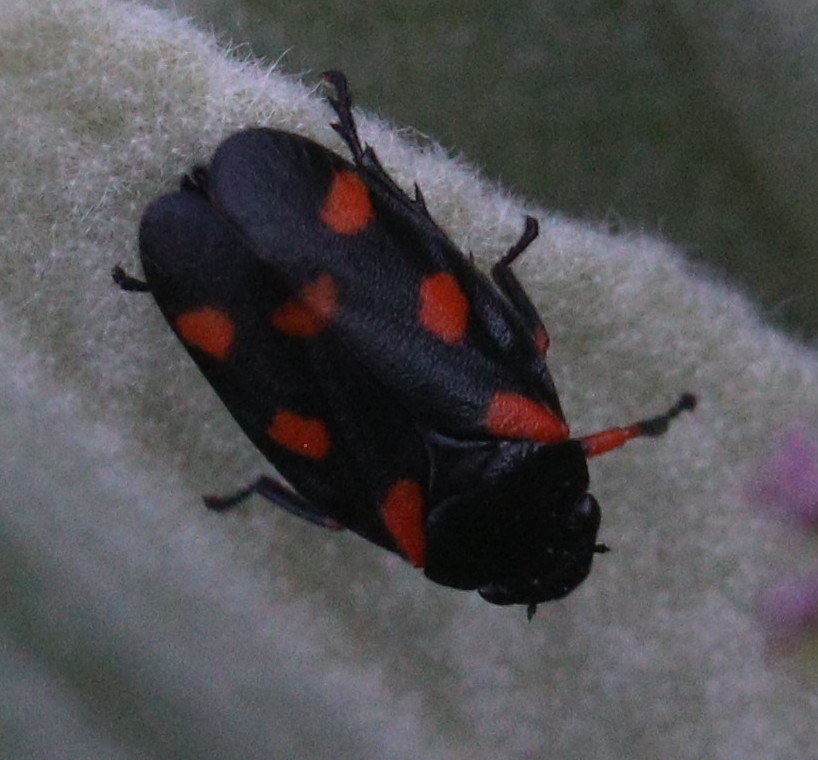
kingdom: Animalia
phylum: Arthropoda
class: Insecta
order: Hemiptera
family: Cercopidae
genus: Cercopis
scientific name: Cercopis
